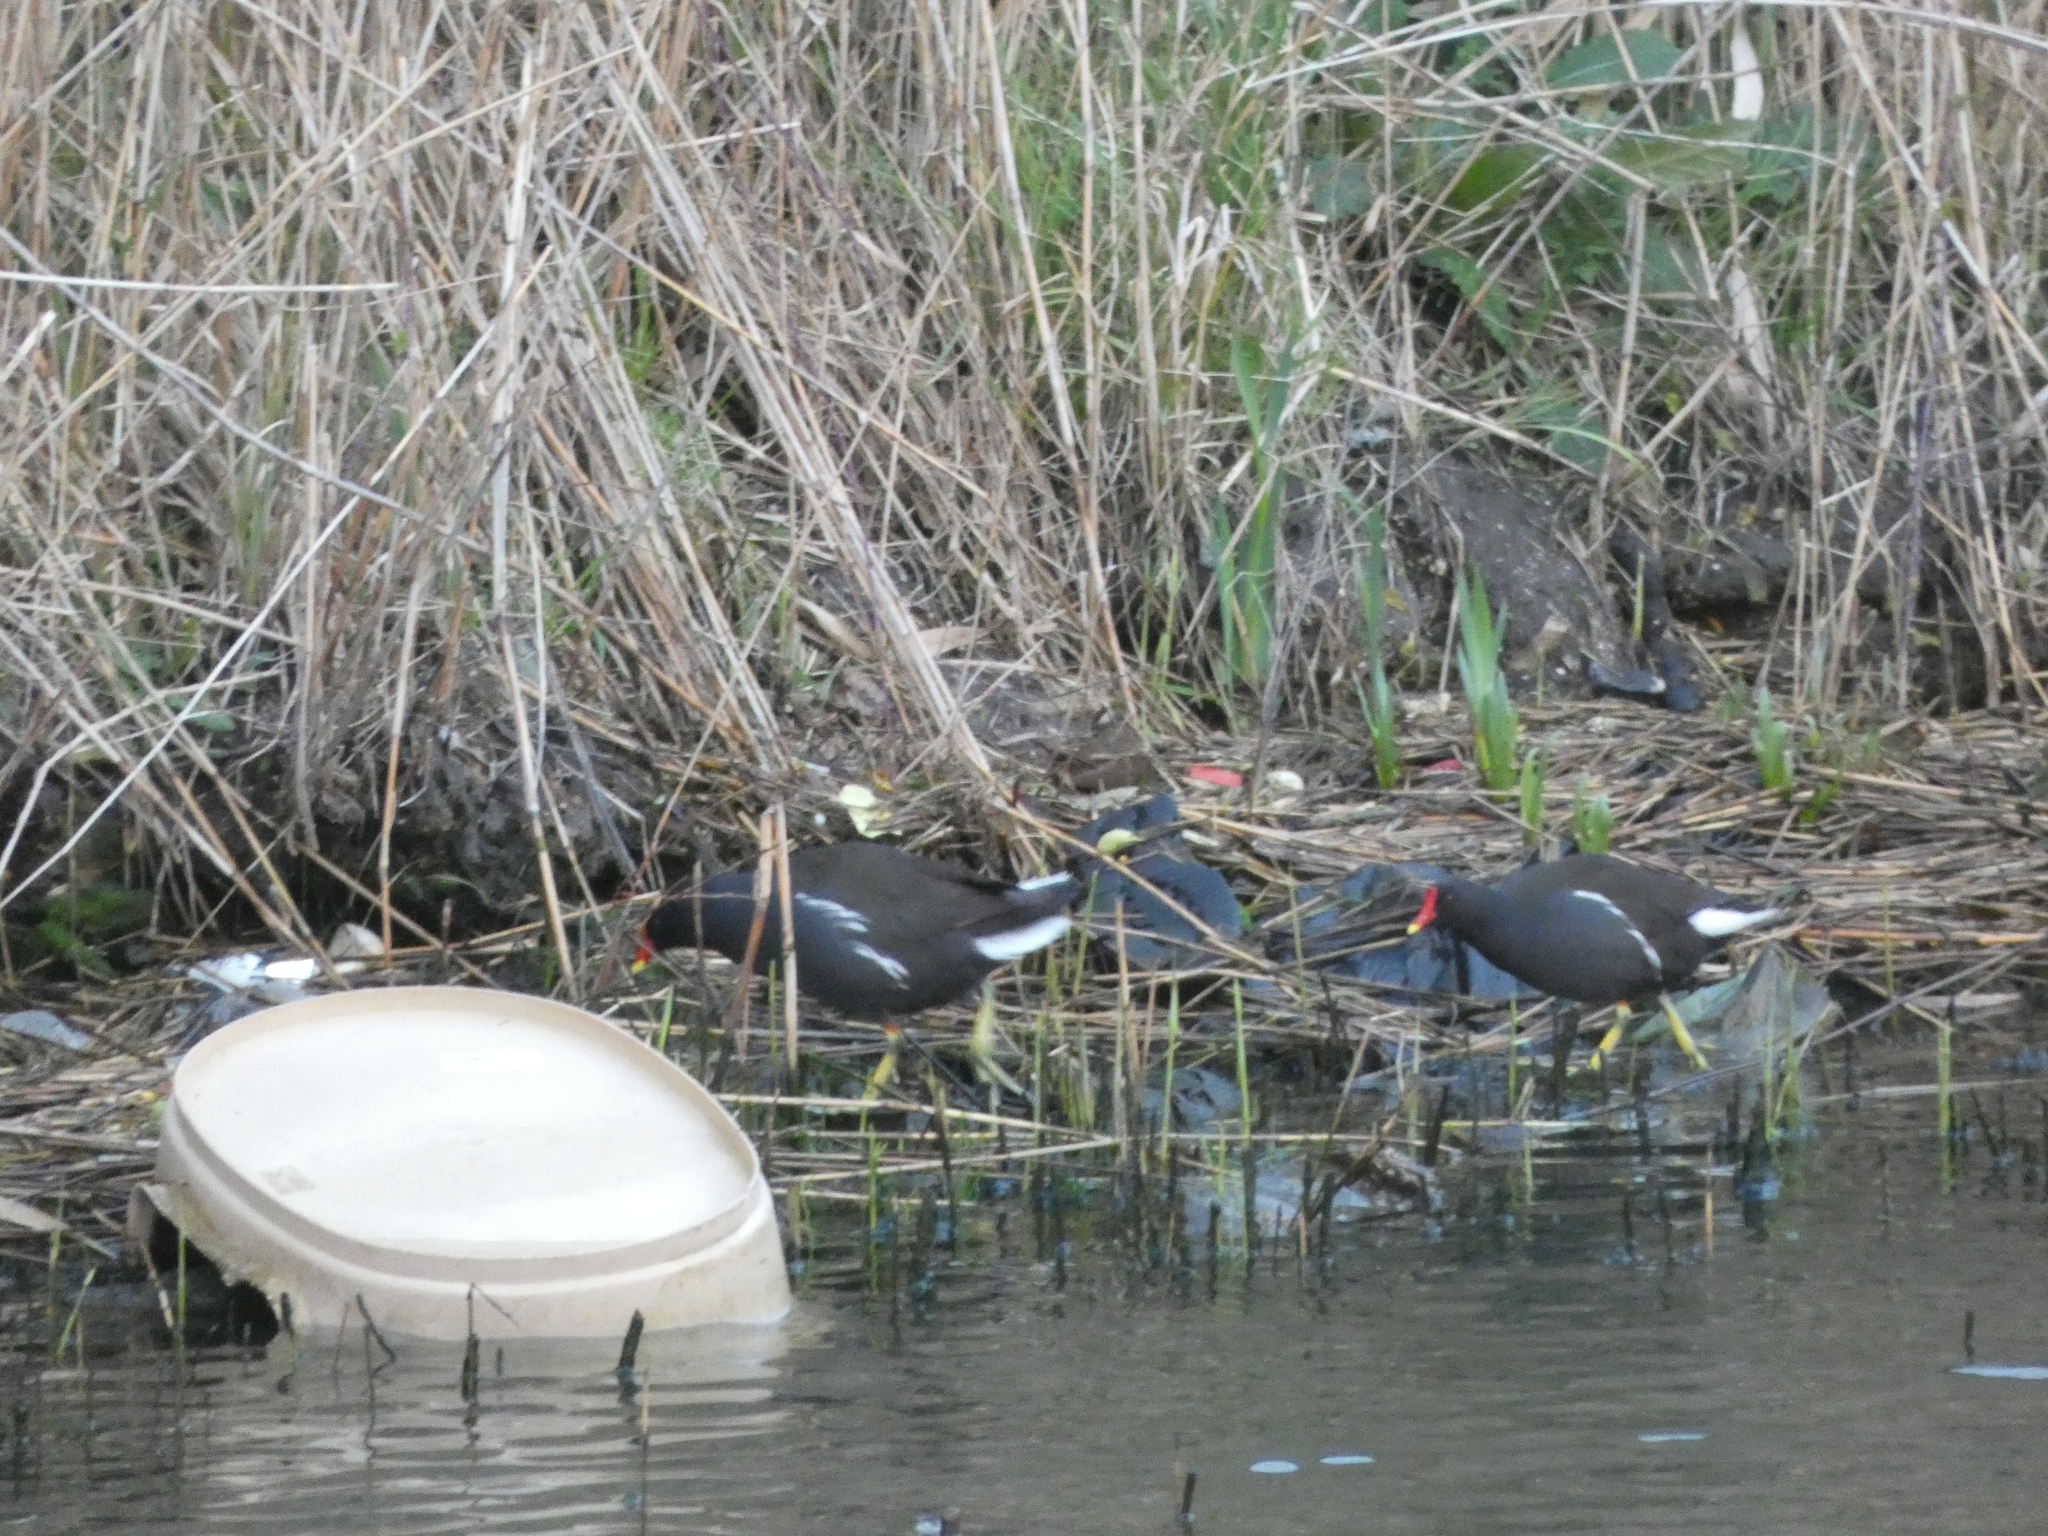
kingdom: Animalia
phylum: Chordata
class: Aves
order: Gruiformes
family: Rallidae
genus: Gallinula
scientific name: Gallinula chloropus
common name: Common moorhen
